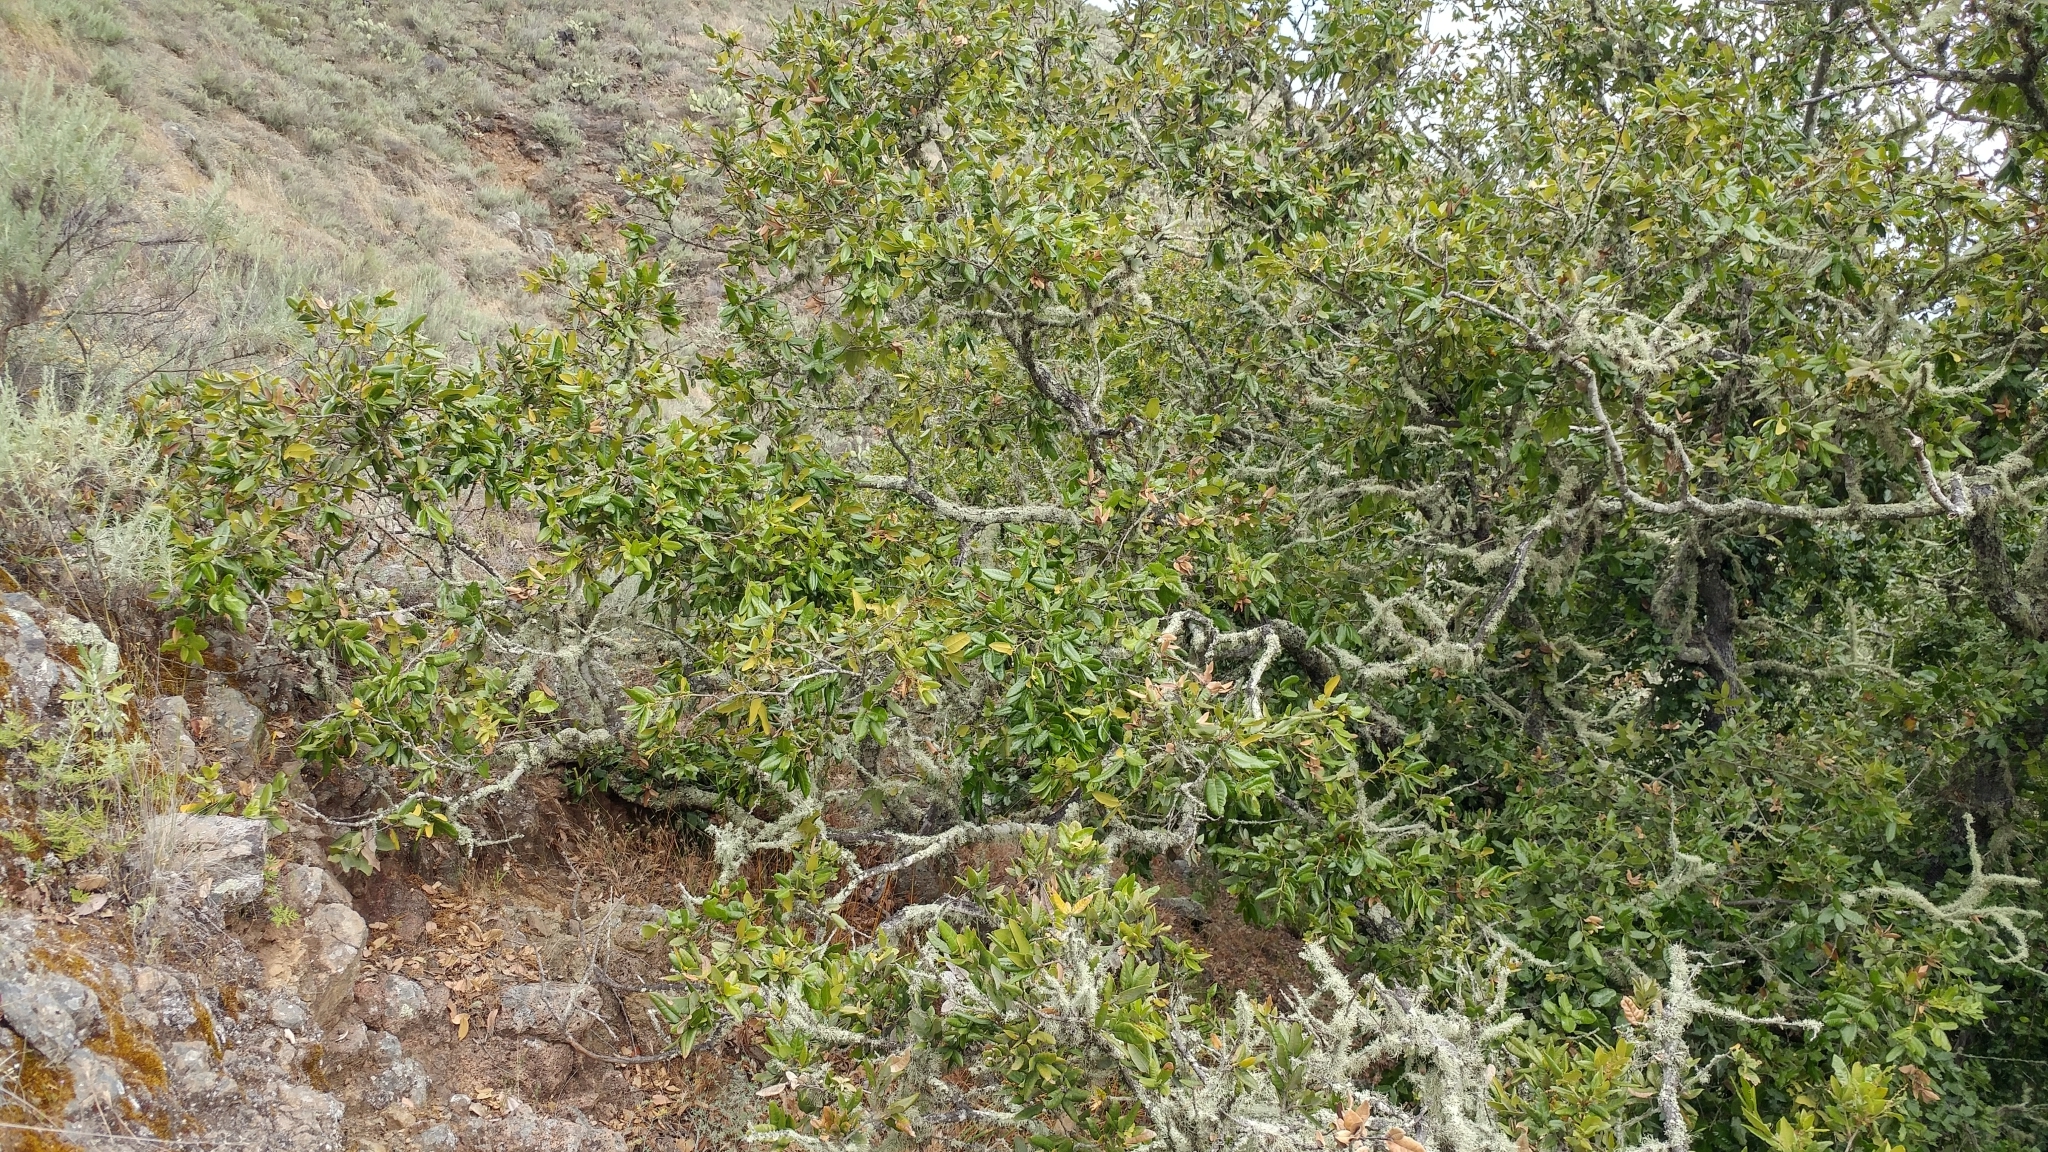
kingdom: Plantae
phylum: Tracheophyta
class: Magnoliopsida
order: Fagales
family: Fagaceae
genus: Quercus
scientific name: Quercus tomentella
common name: Island oak
